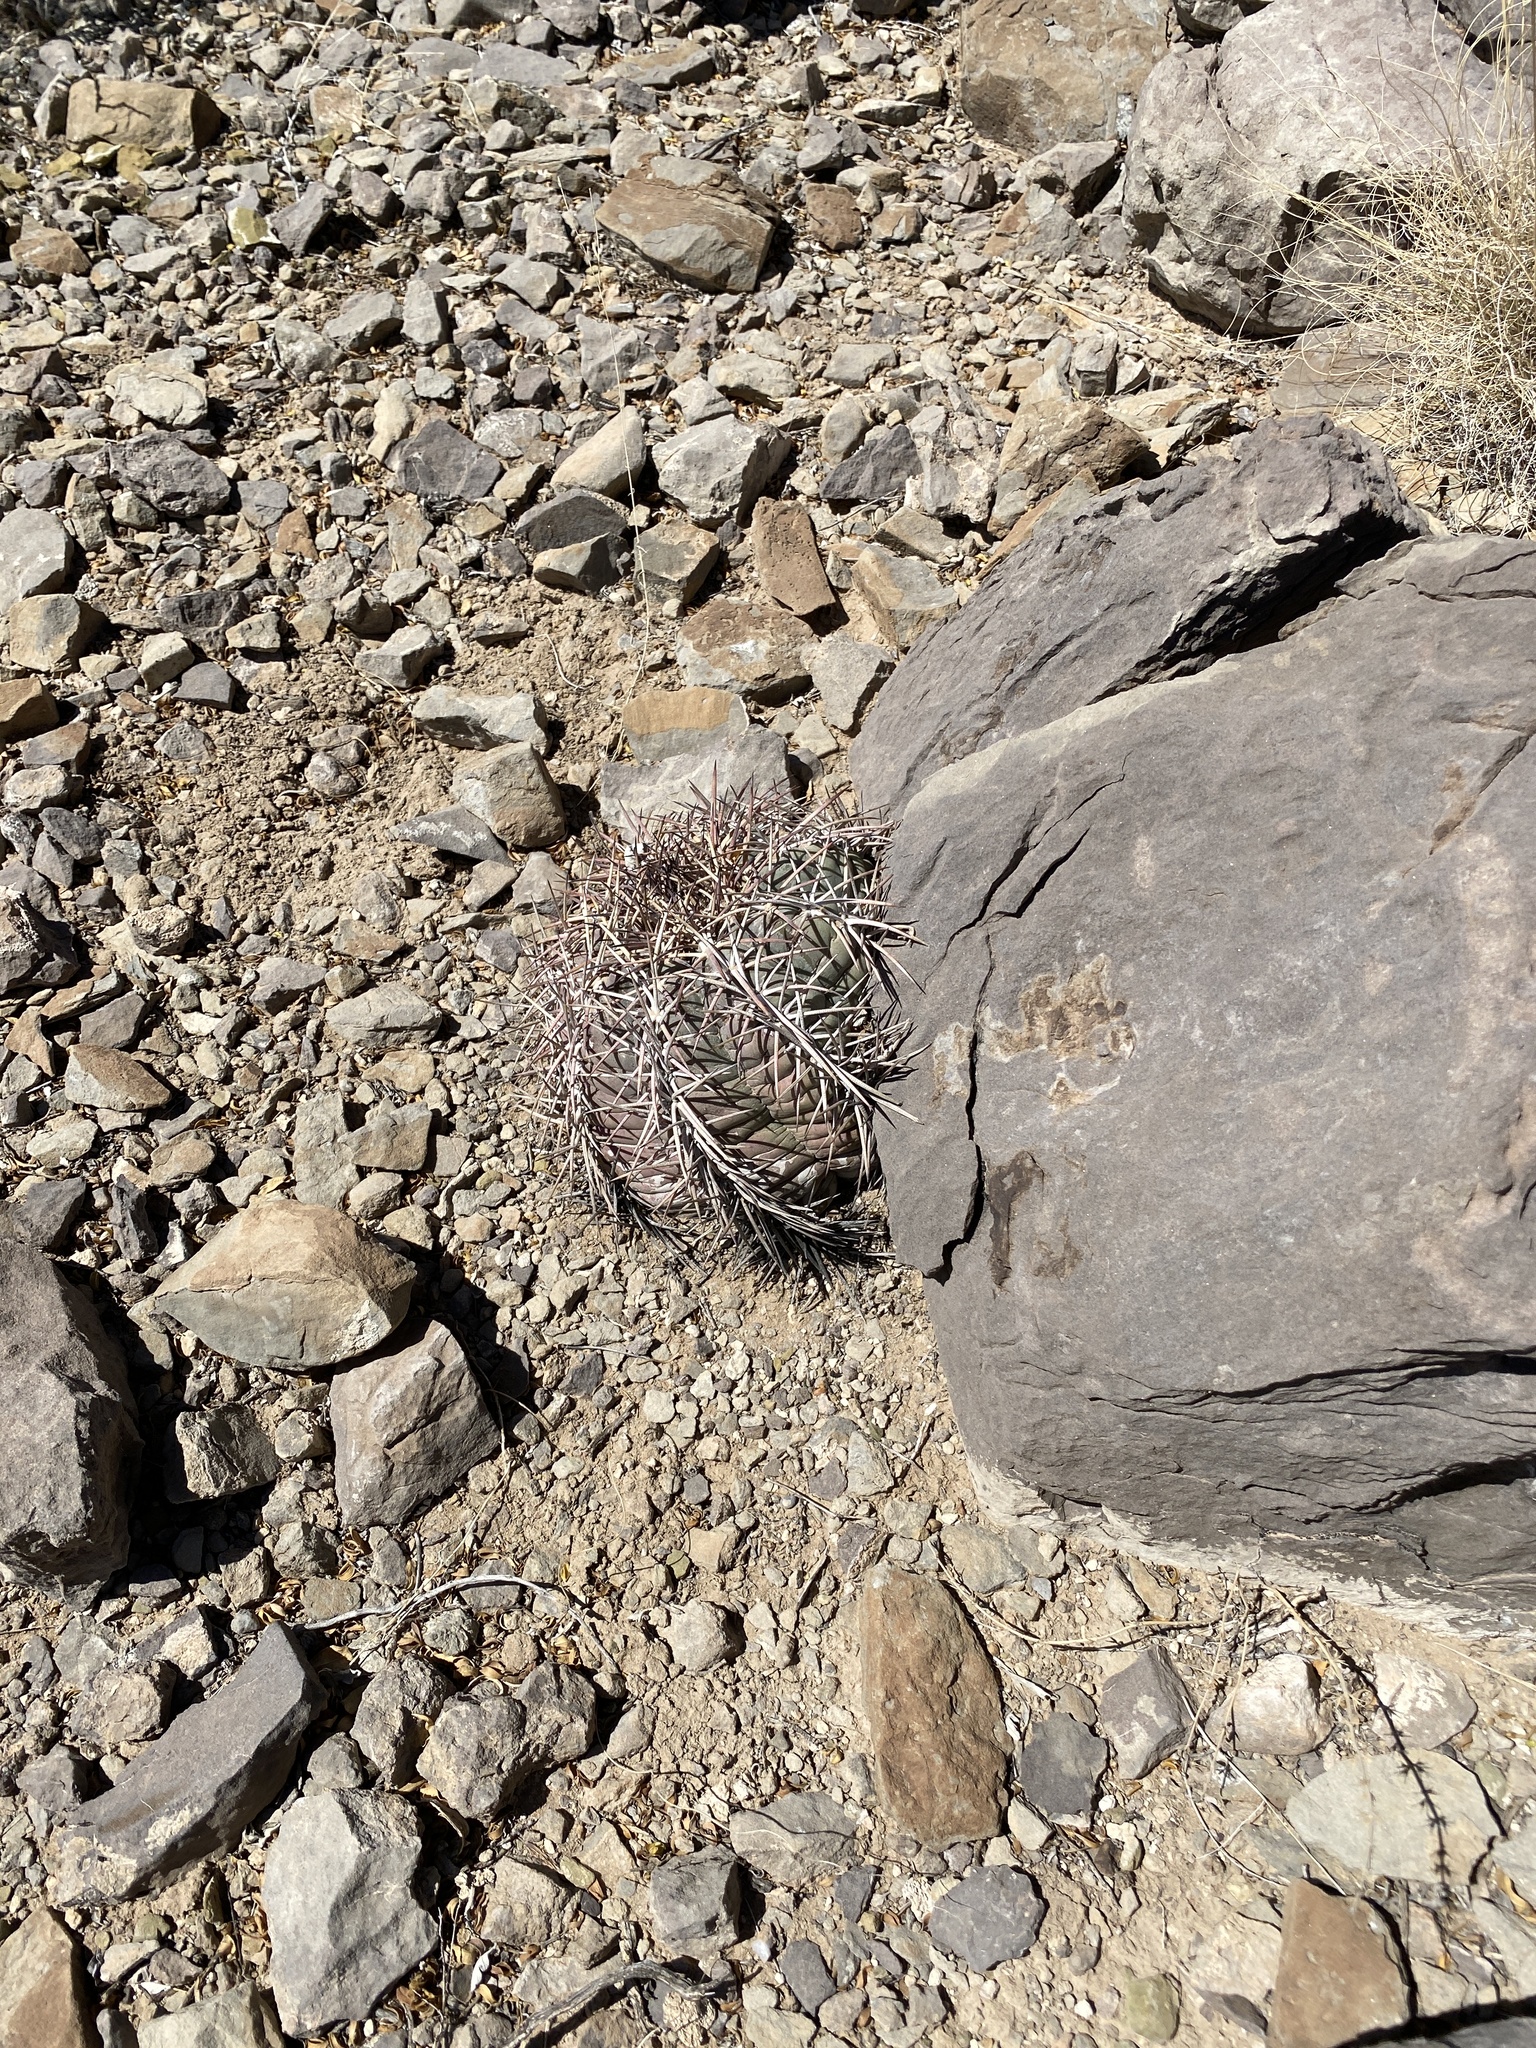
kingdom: Plantae
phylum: Tracheophyta
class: Magnoliopsida
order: Caryophyllales
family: Cactaceae
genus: Echinocactus
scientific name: Echinocactus horizonthalonius
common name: Devilshead
